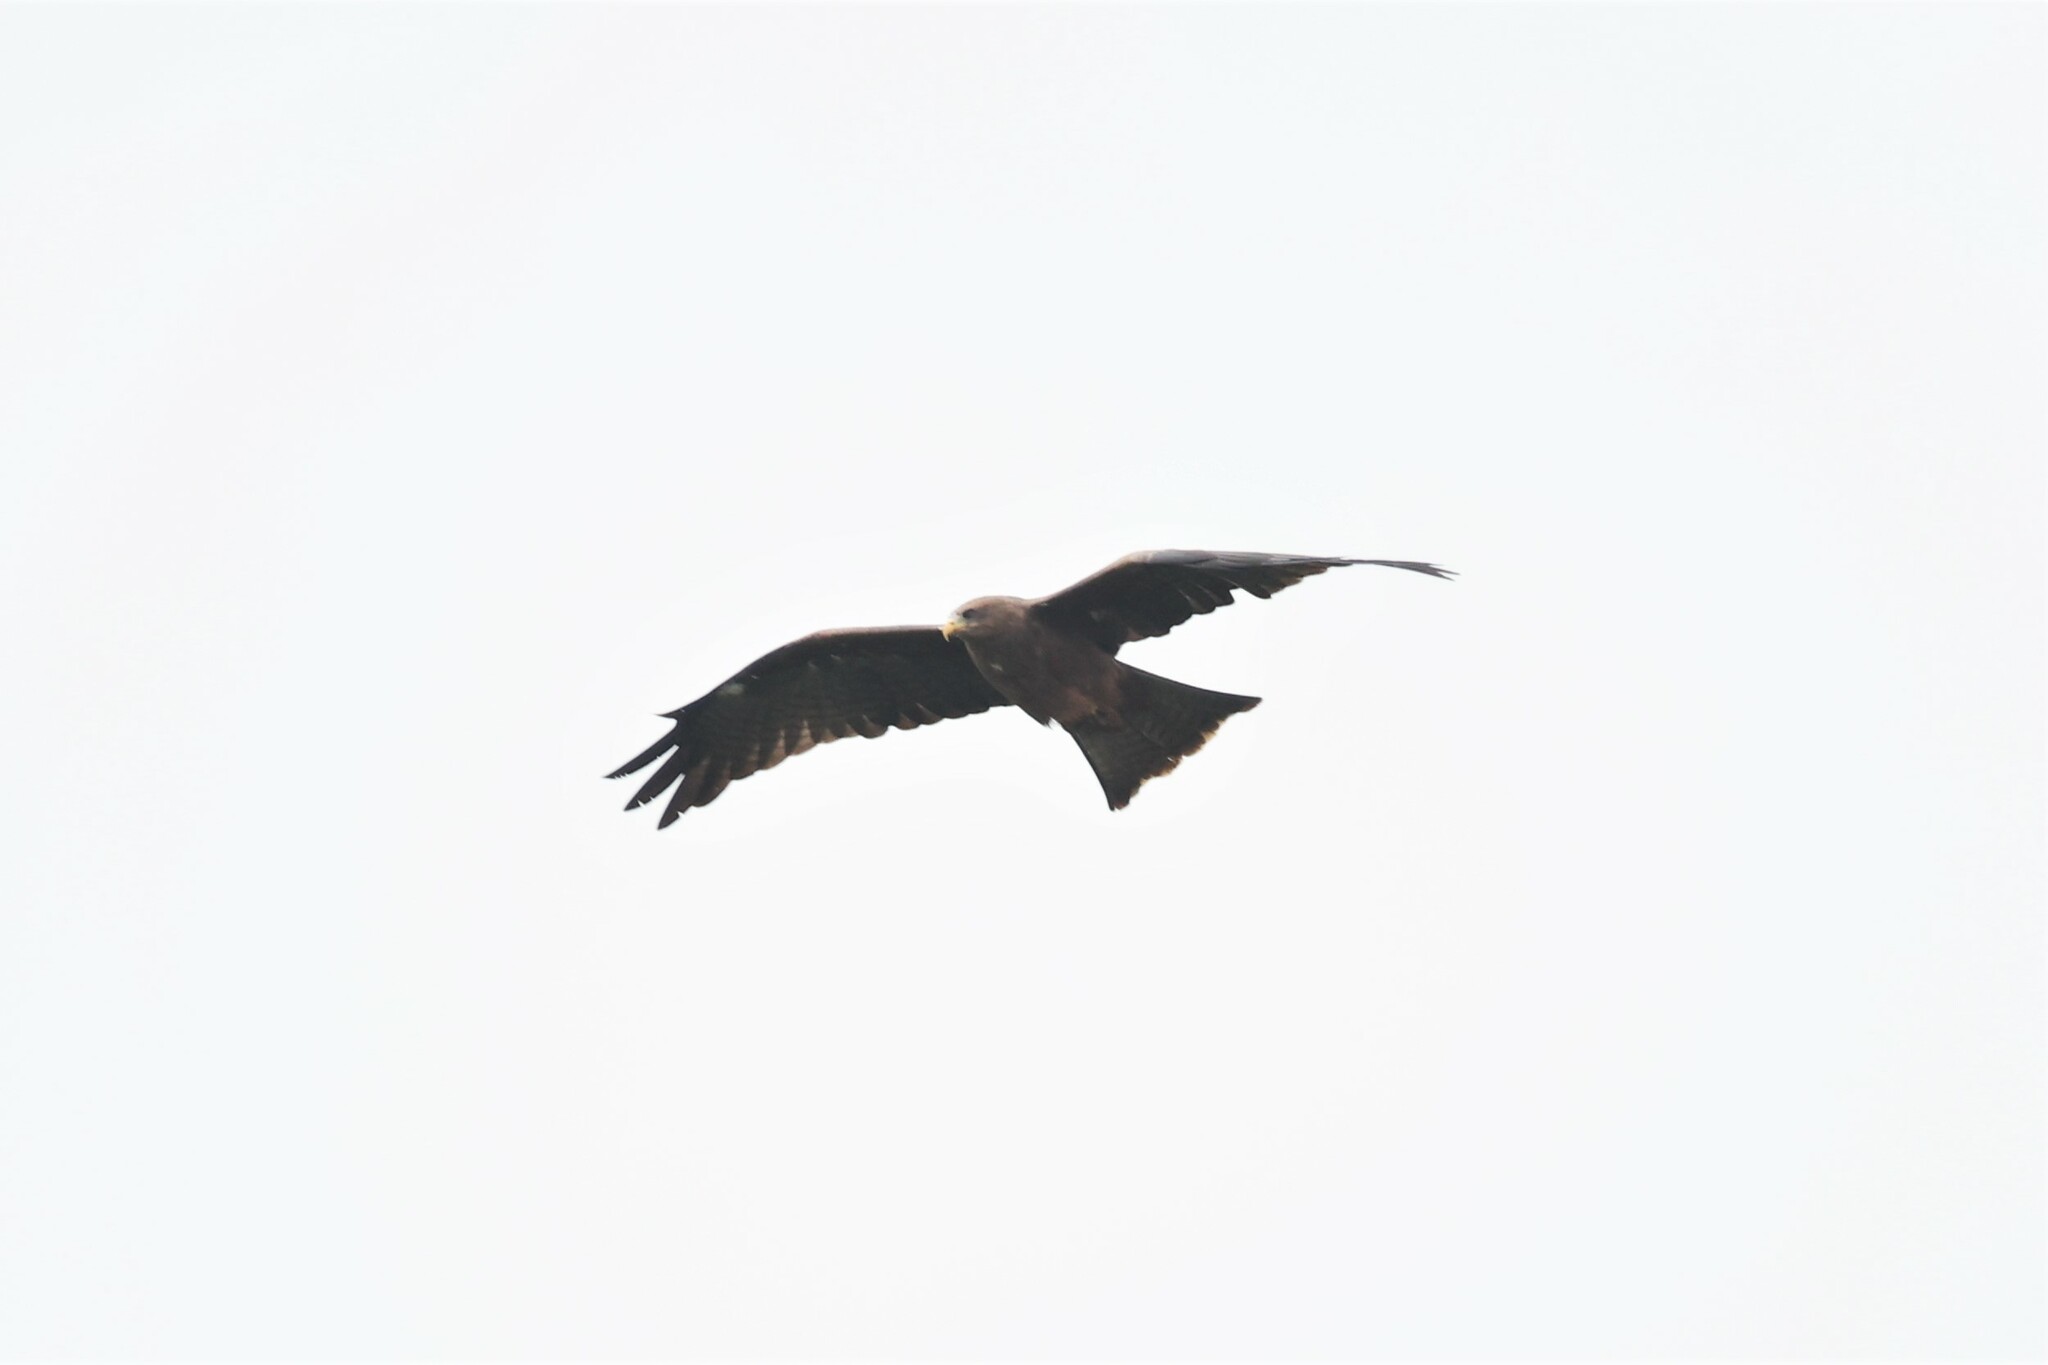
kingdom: Animalia
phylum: Chordata
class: Aves
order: Accipitriformes
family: Accipitridae
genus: Milvus
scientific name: Milvus migrans
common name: Black kite
